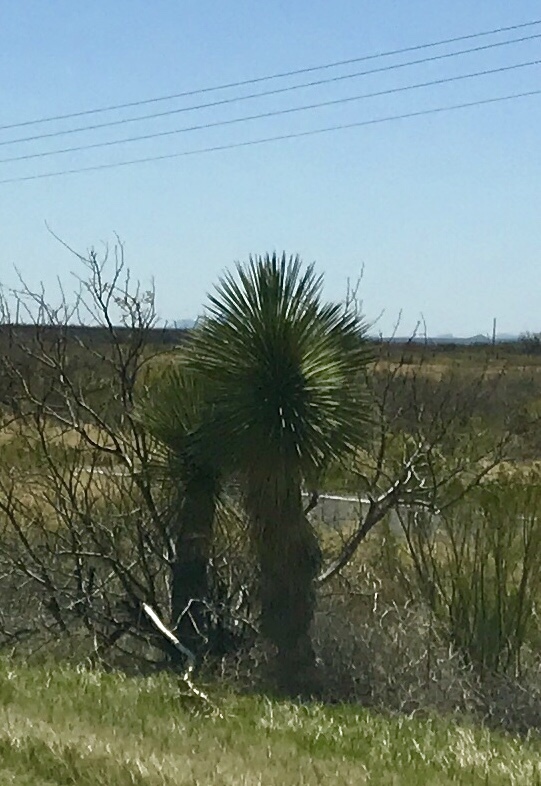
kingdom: Plantae
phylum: Tracheophyta
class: Liliopsida
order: Asparagales
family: Asparagaceae
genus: Yucca
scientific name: Yucca elata
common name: Palmella
